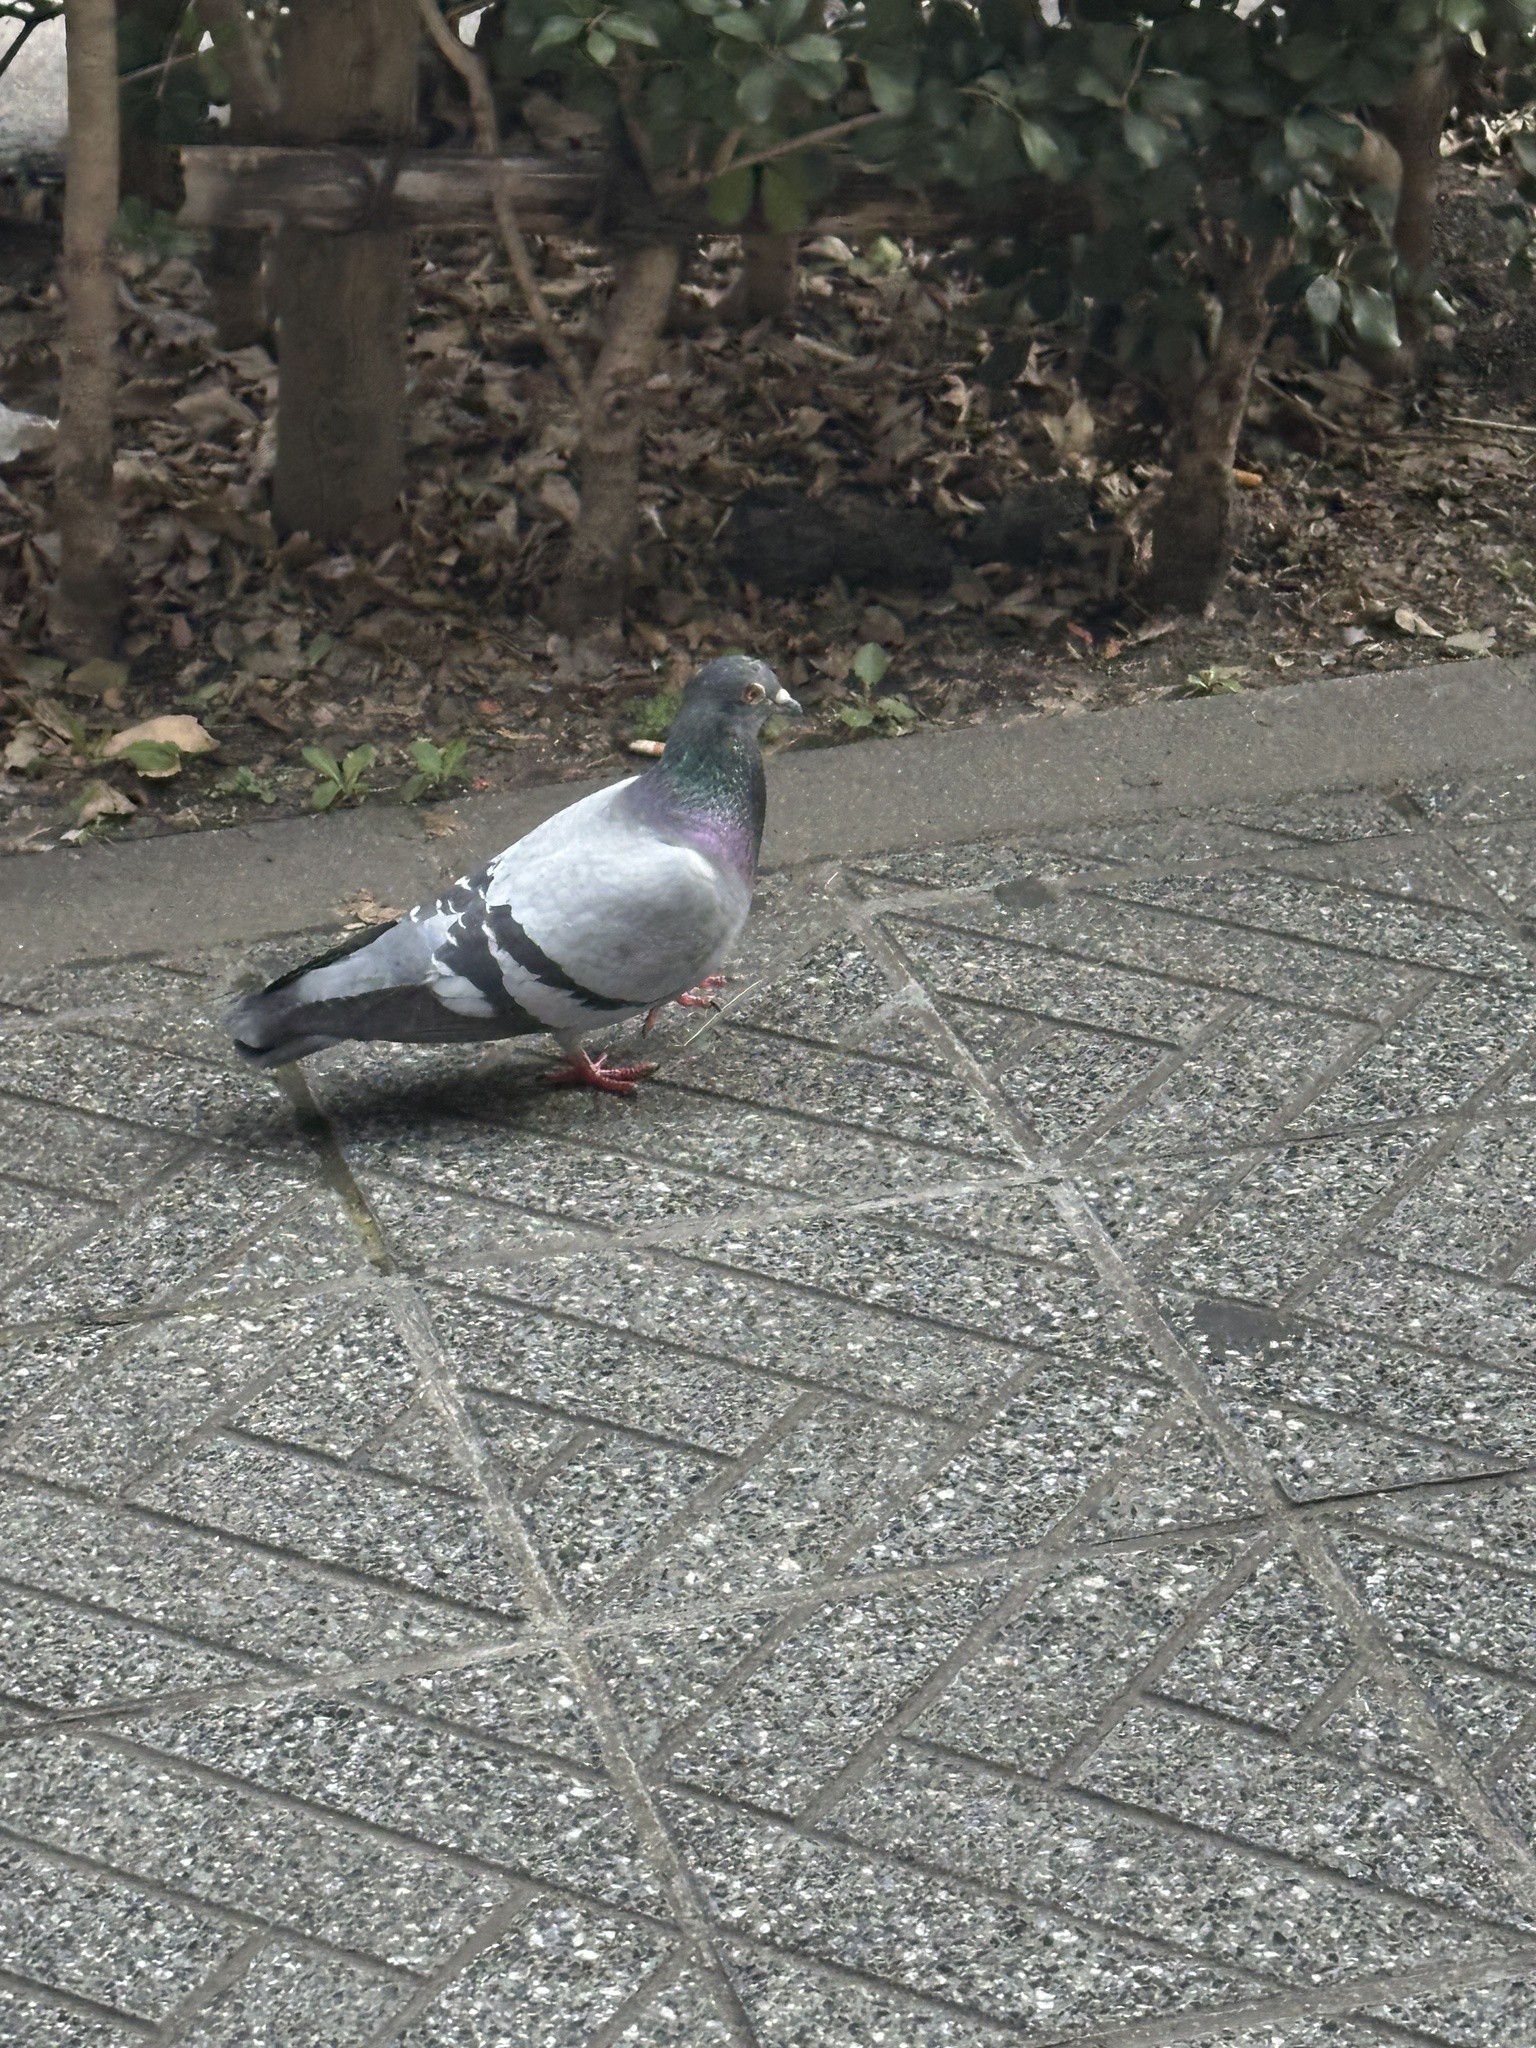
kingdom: Animalia
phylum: Chordata
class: Aves
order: Columbiformes
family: Columbidae
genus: Columba
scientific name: Columba livia
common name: Rock pigeon
